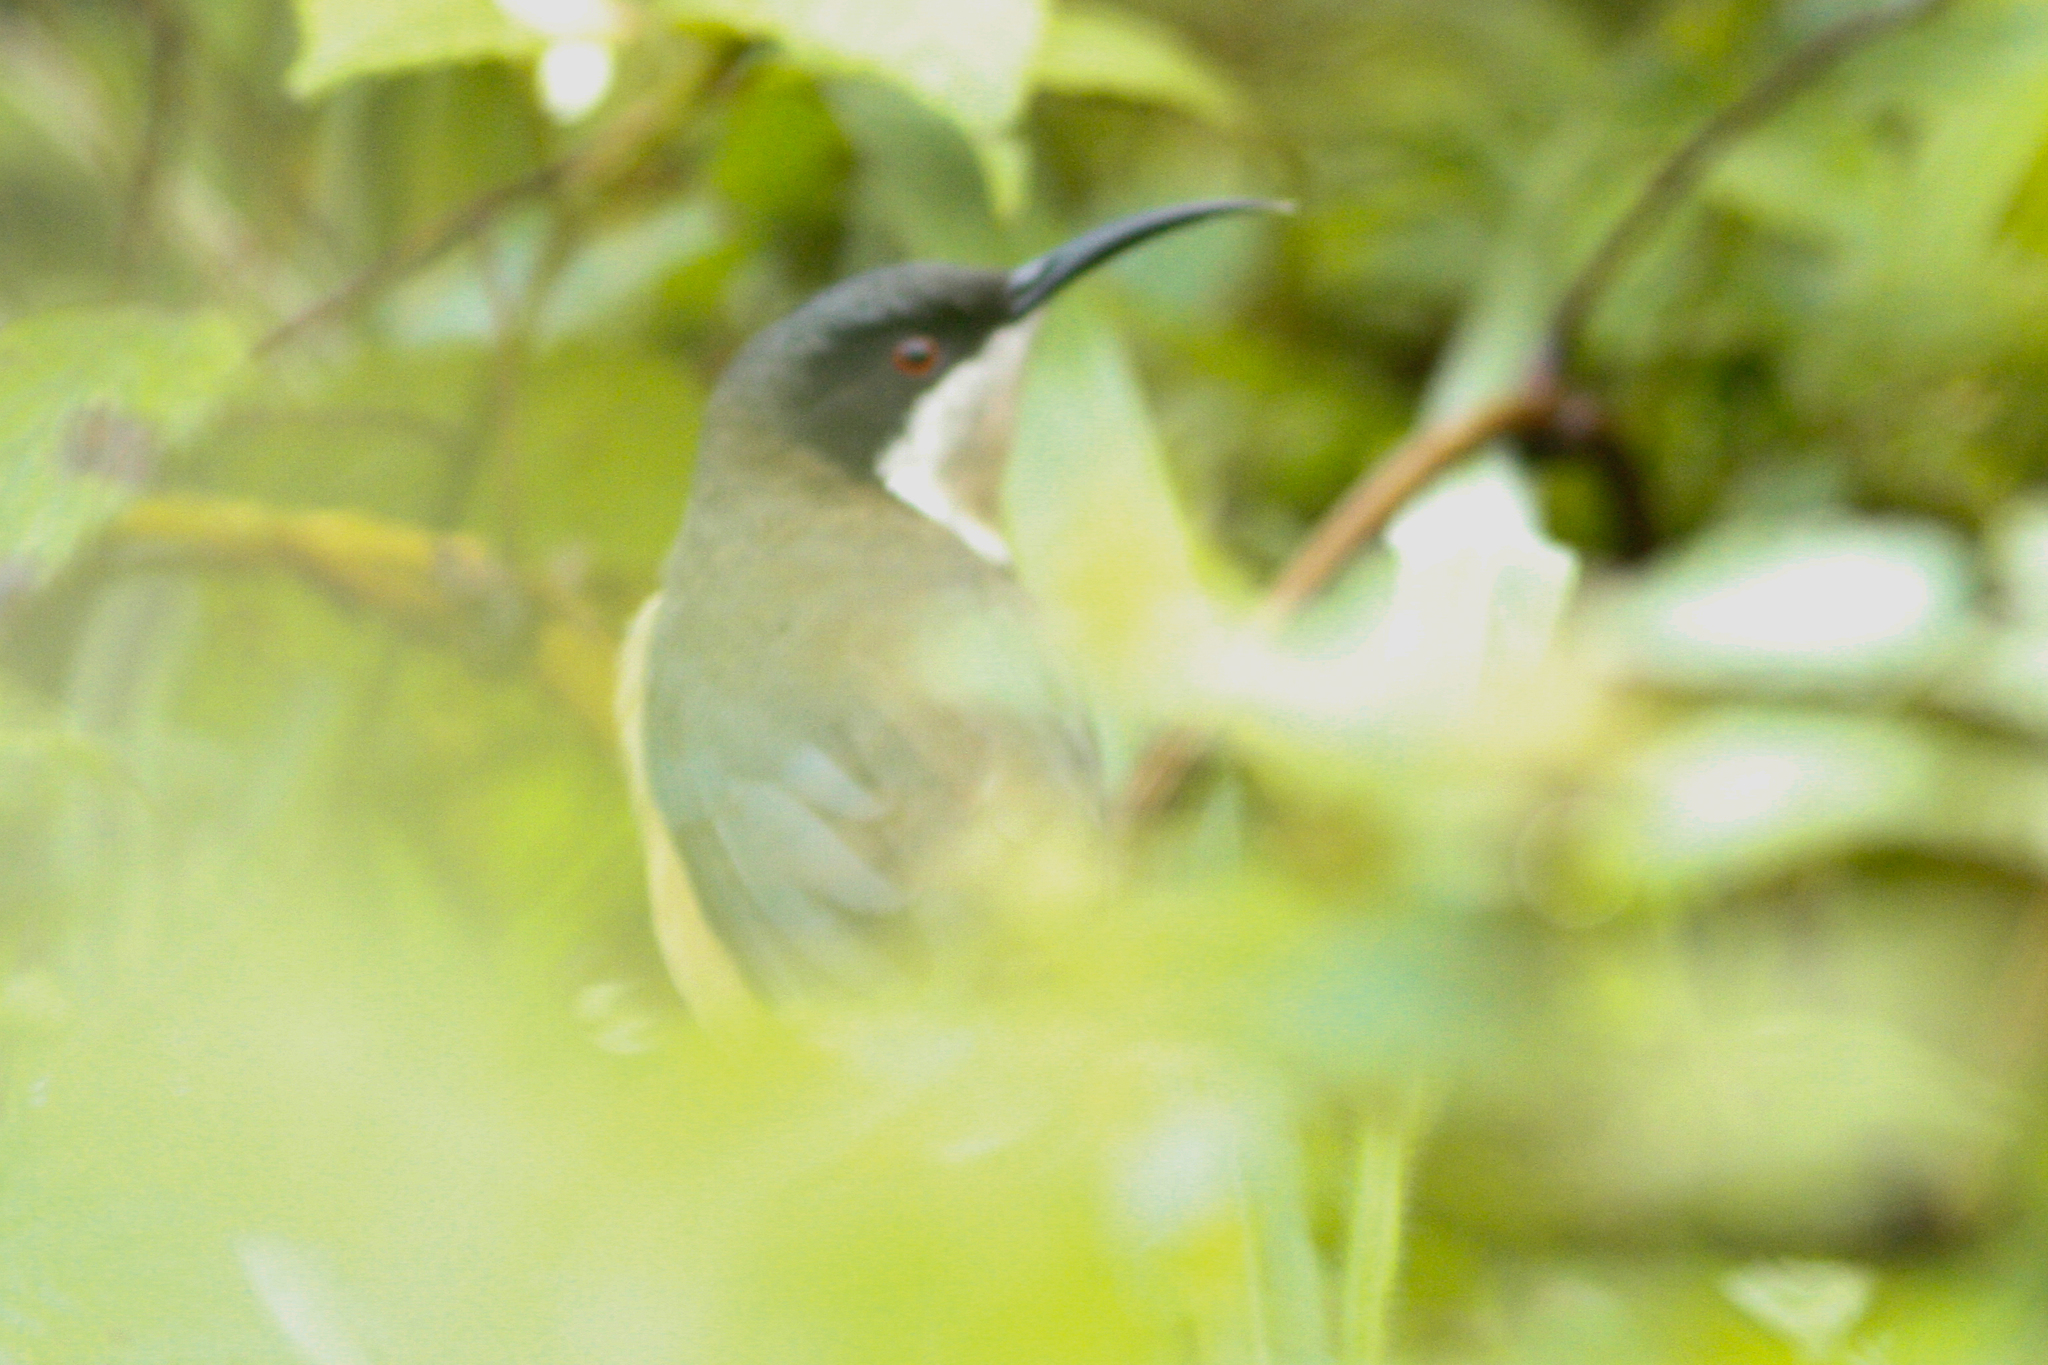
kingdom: Animalia
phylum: Chordata
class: Aves
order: Passeriformes
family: Meliphagidae
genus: Acanthorhynchus
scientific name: Acanthorhynchus tenuirostris
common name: Eastern spinebill
